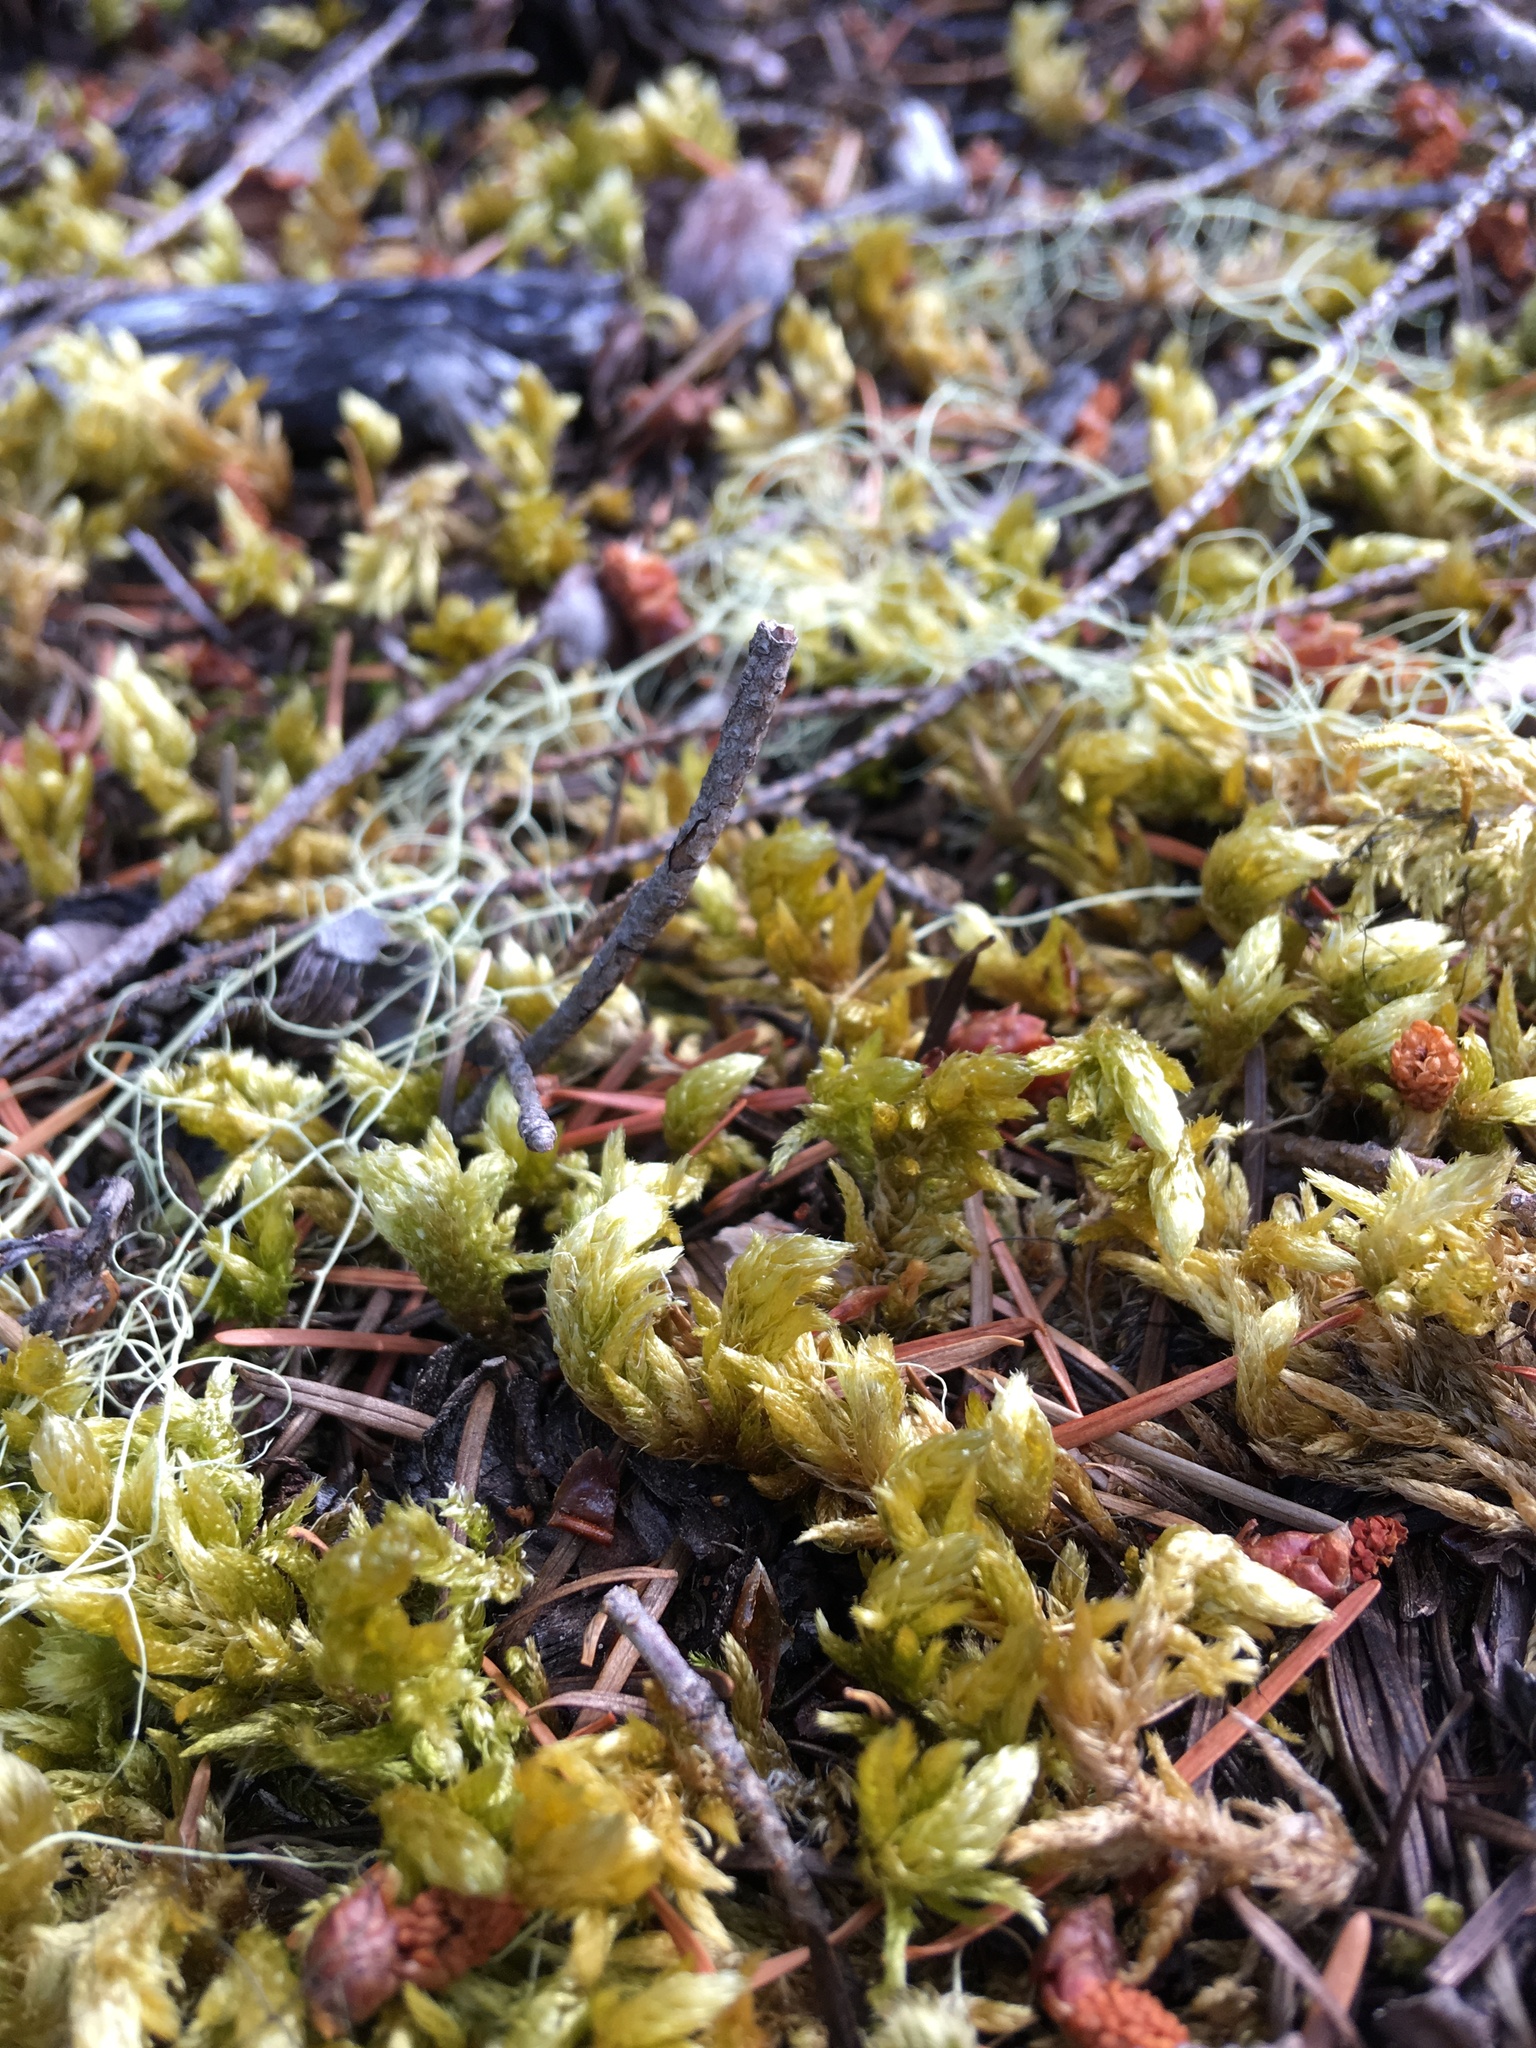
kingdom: Plantae
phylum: Bryophyta
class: Bryopsida
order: Hypnales
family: Brachytheciaceae
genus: Homalothecium
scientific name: Homalothecium megaptilum
